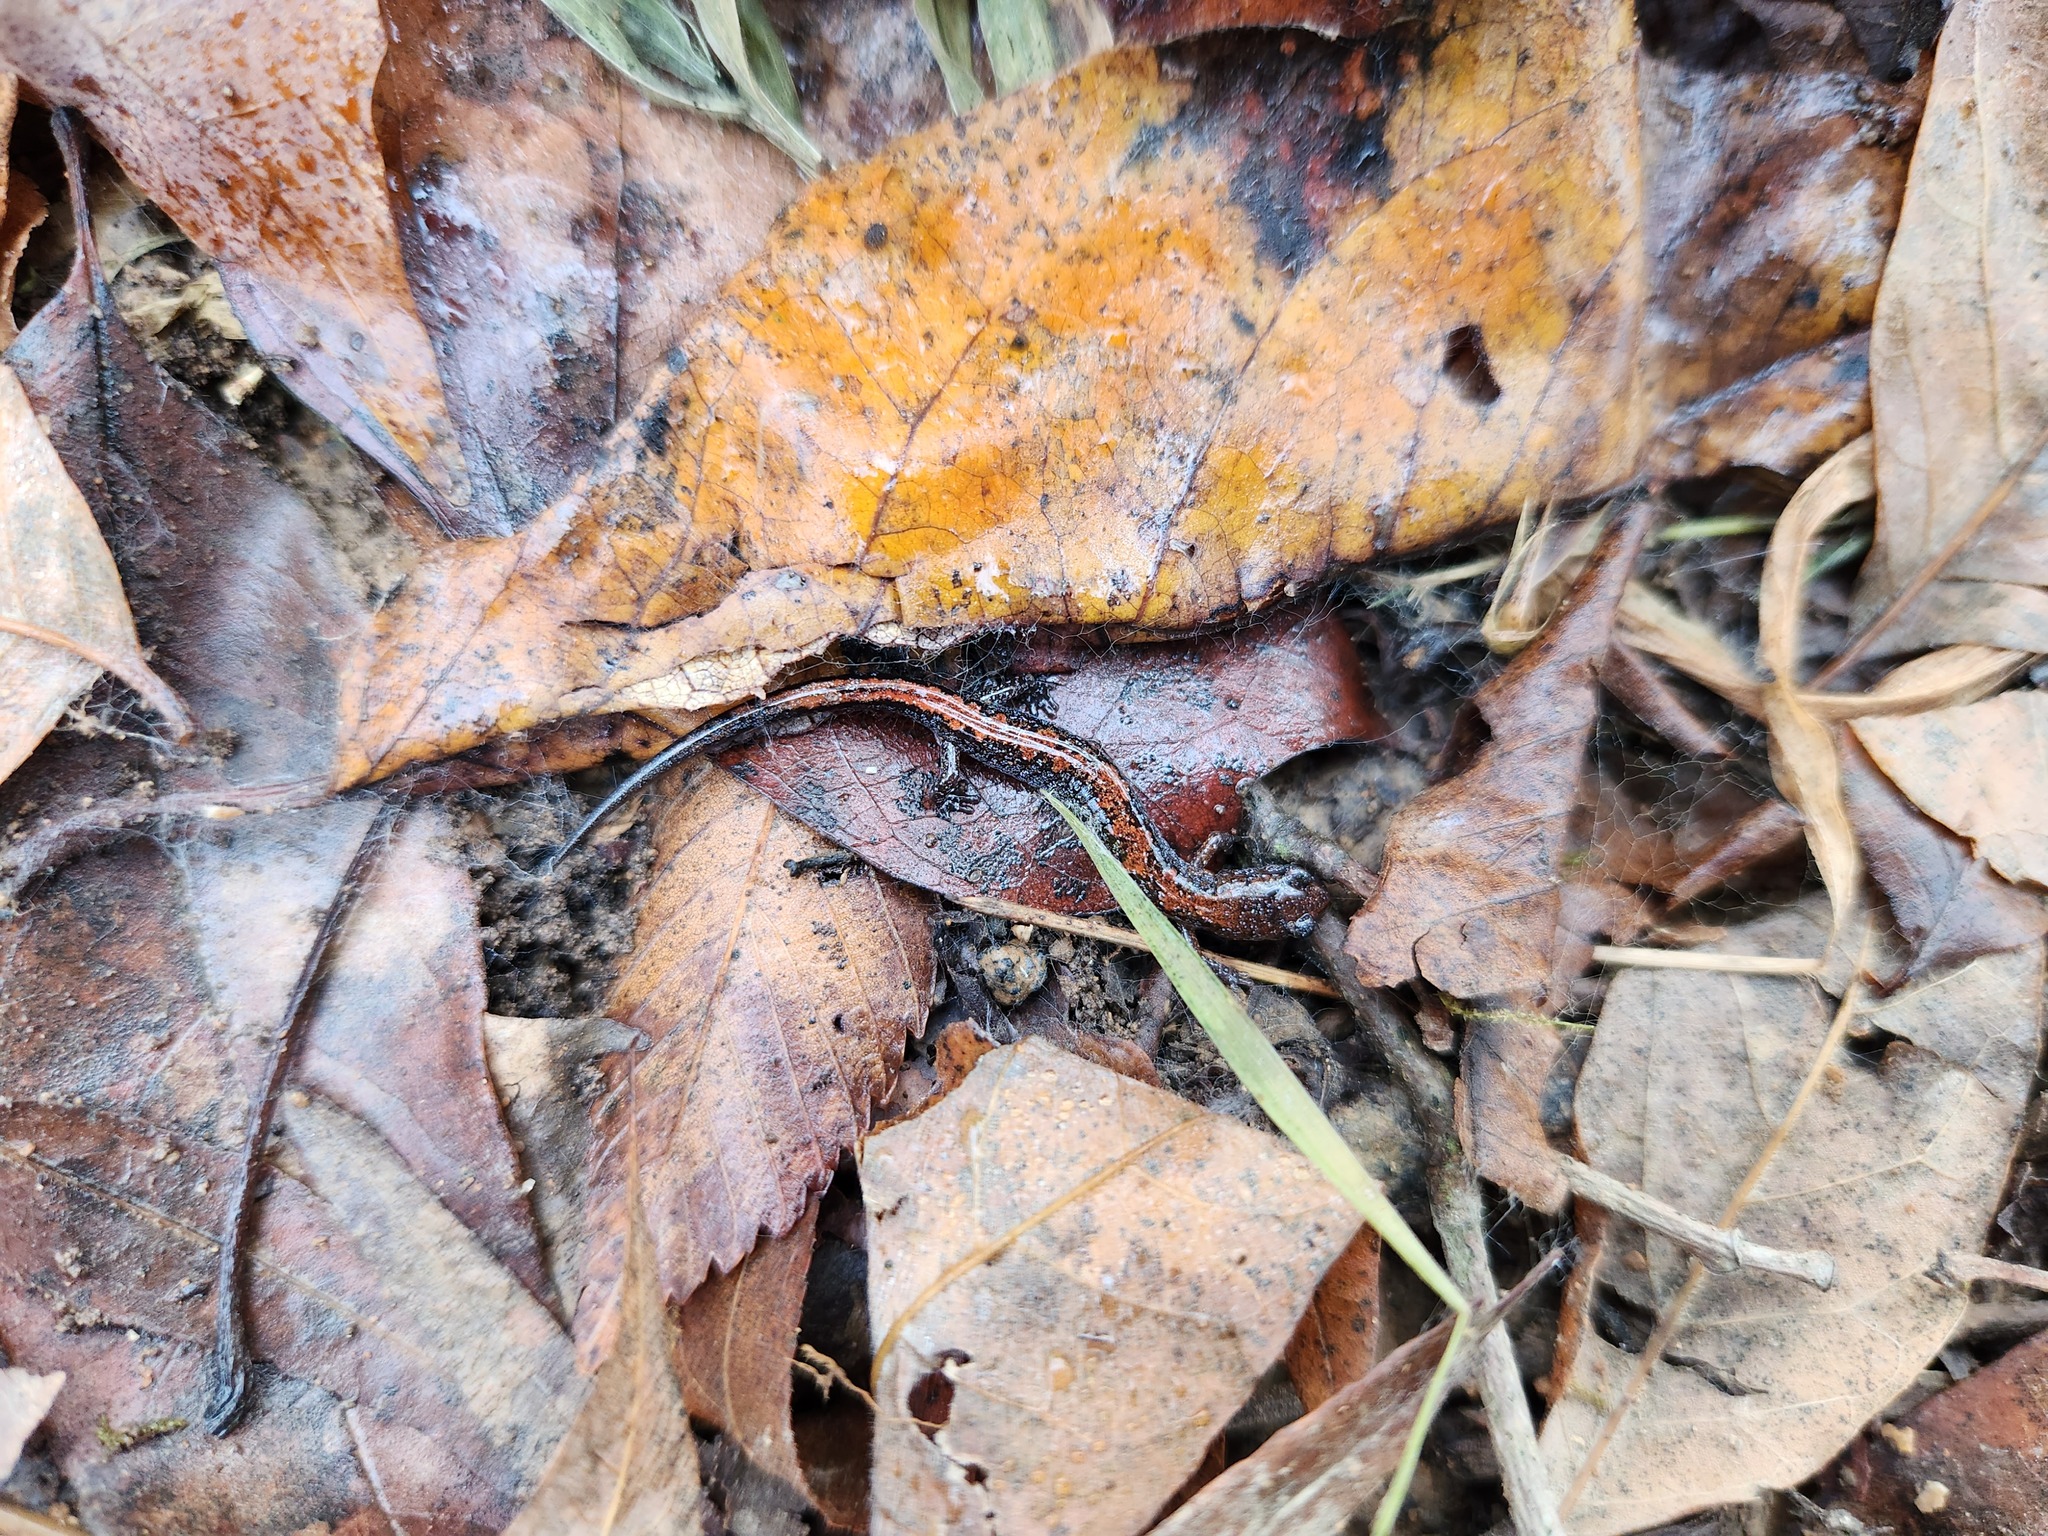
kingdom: Animalia
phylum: Chordata
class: Amphibia
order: Caudata
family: Plethodontidae
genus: Plethodon
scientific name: Plethodon dorsalis
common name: Northern zigzag salamander
